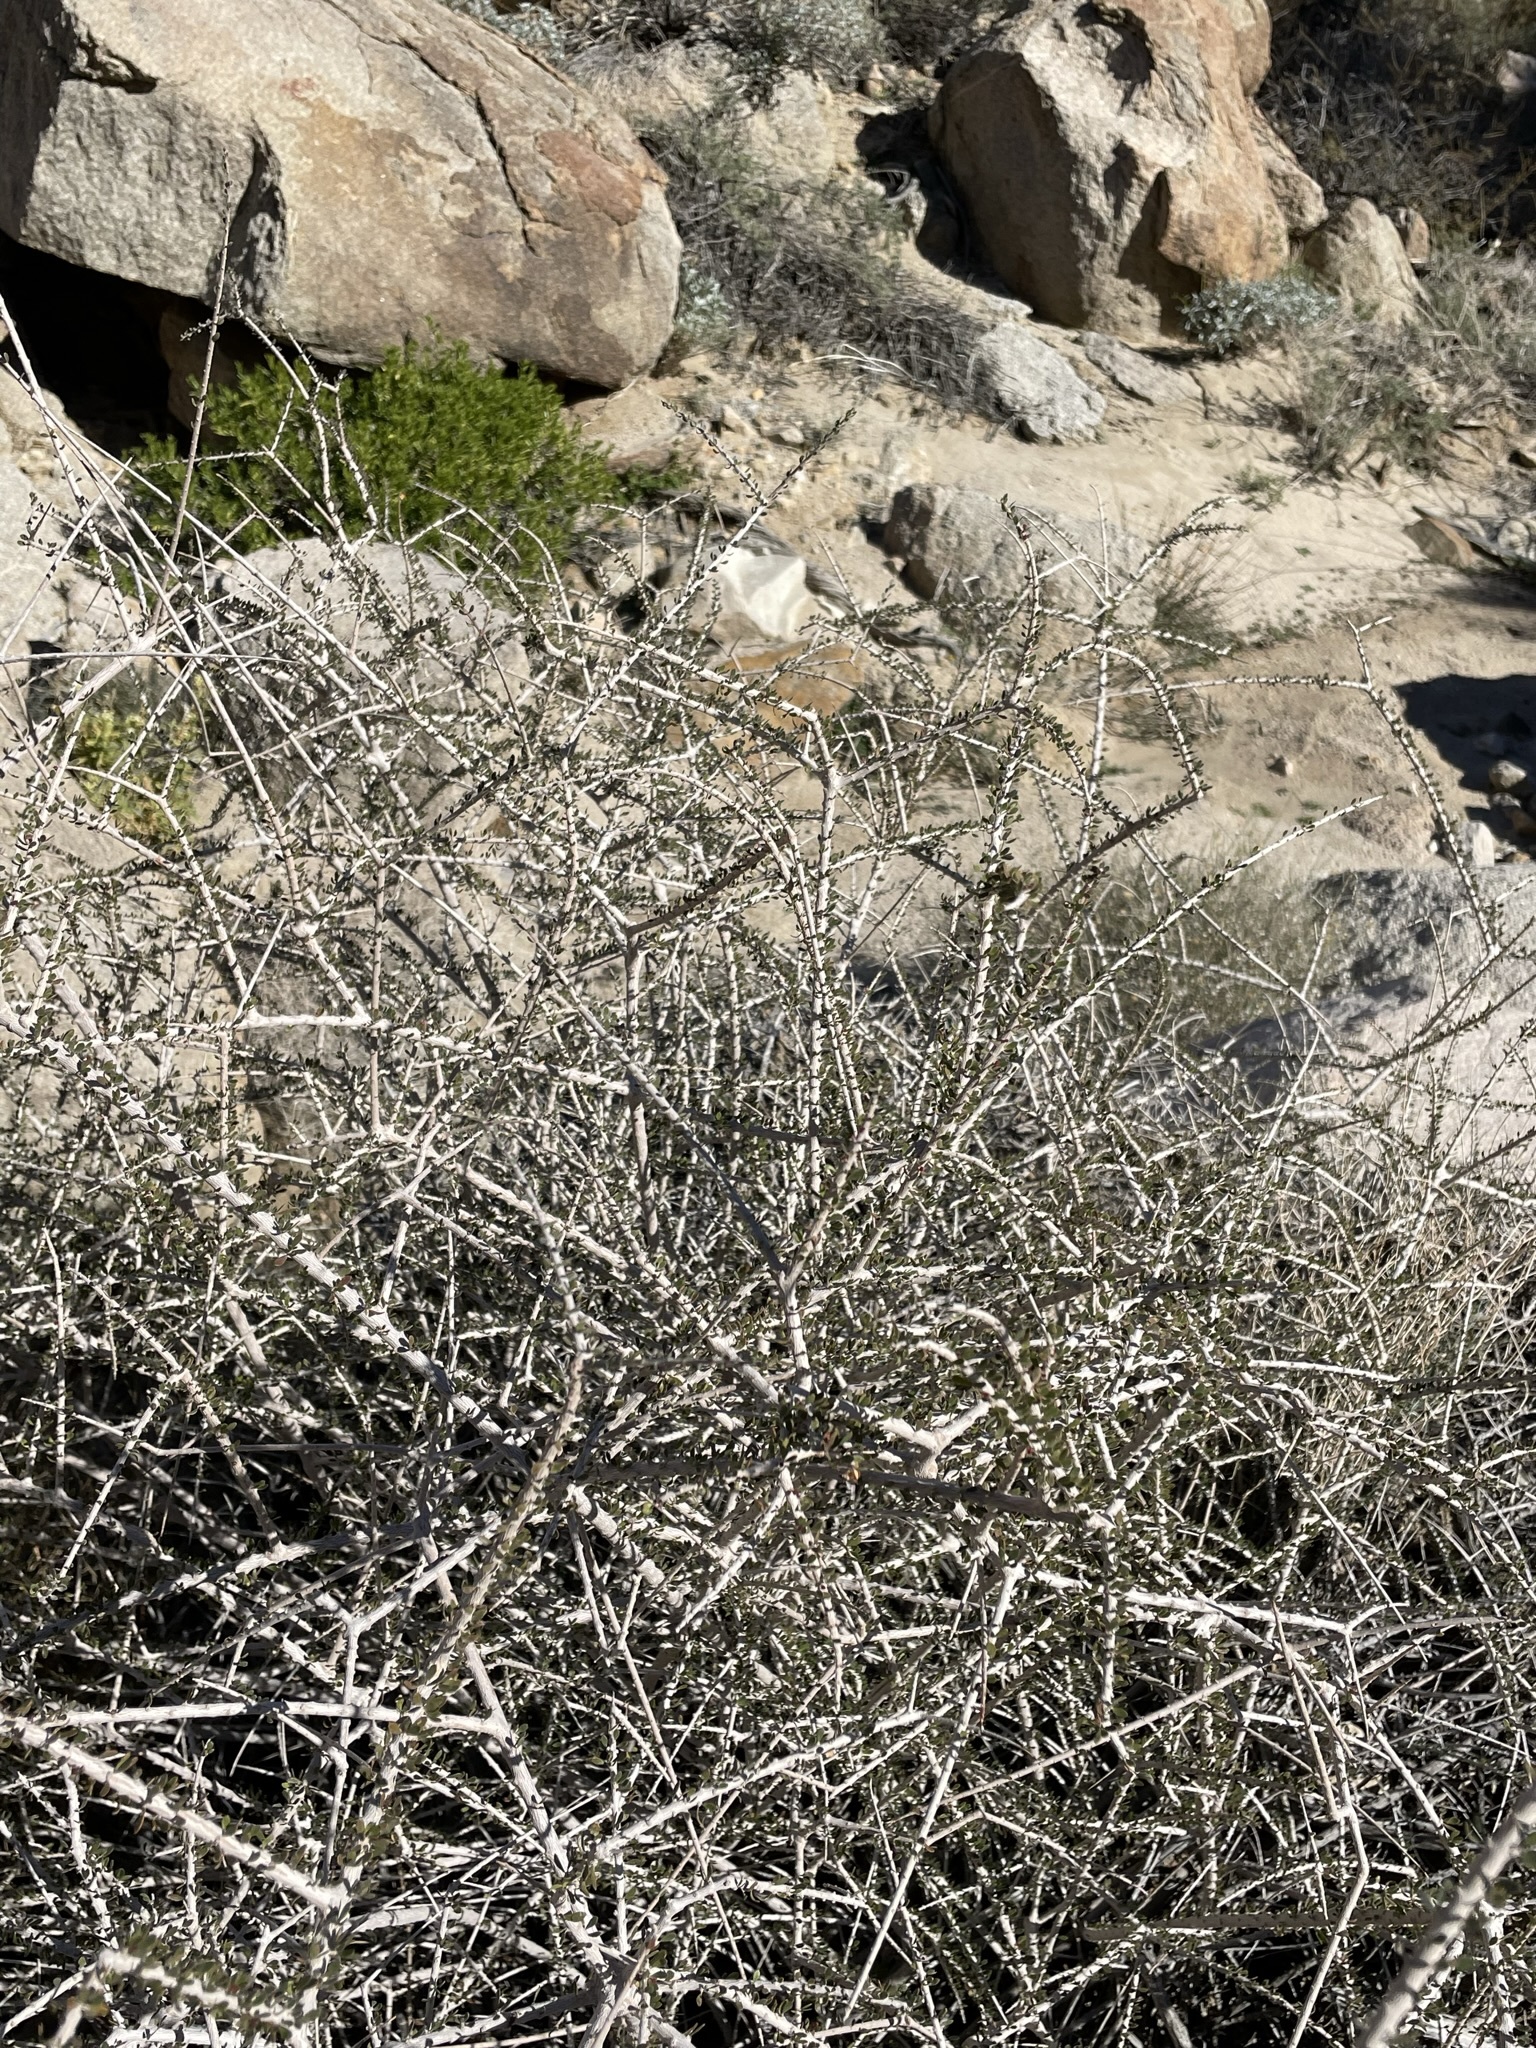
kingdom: Plantae
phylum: Tracheophyta
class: Magnoliopsida
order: Malpighiales
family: Picrodendraceae
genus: Tetracoccus
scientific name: Tetracoccus hallii
